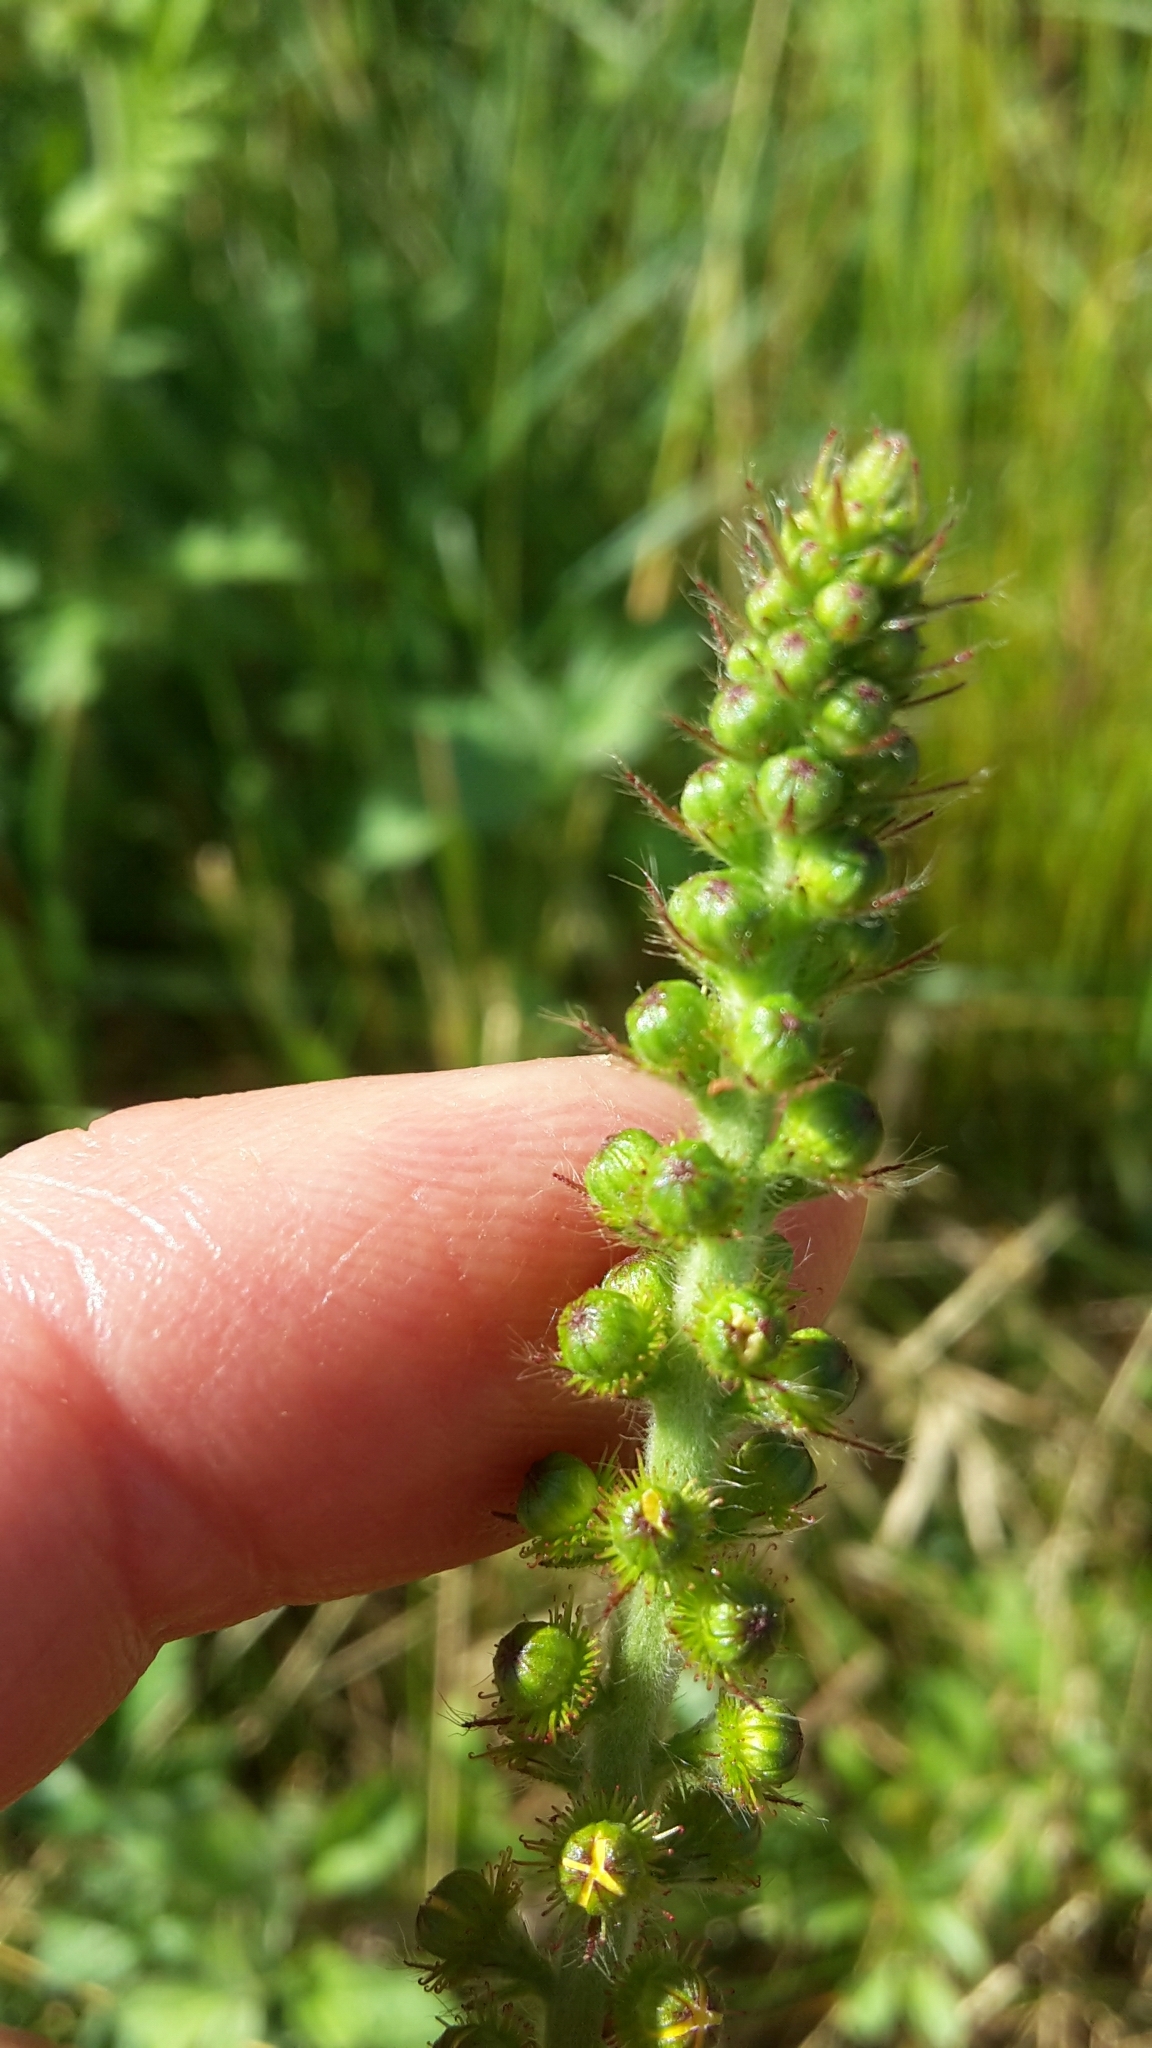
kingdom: Plantae
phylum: Tracheophyta
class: Magnoliopsida
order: Rosales
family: Rosaceae
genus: Agrimonia
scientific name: Agrimonia eupatoria
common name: Agrimony
